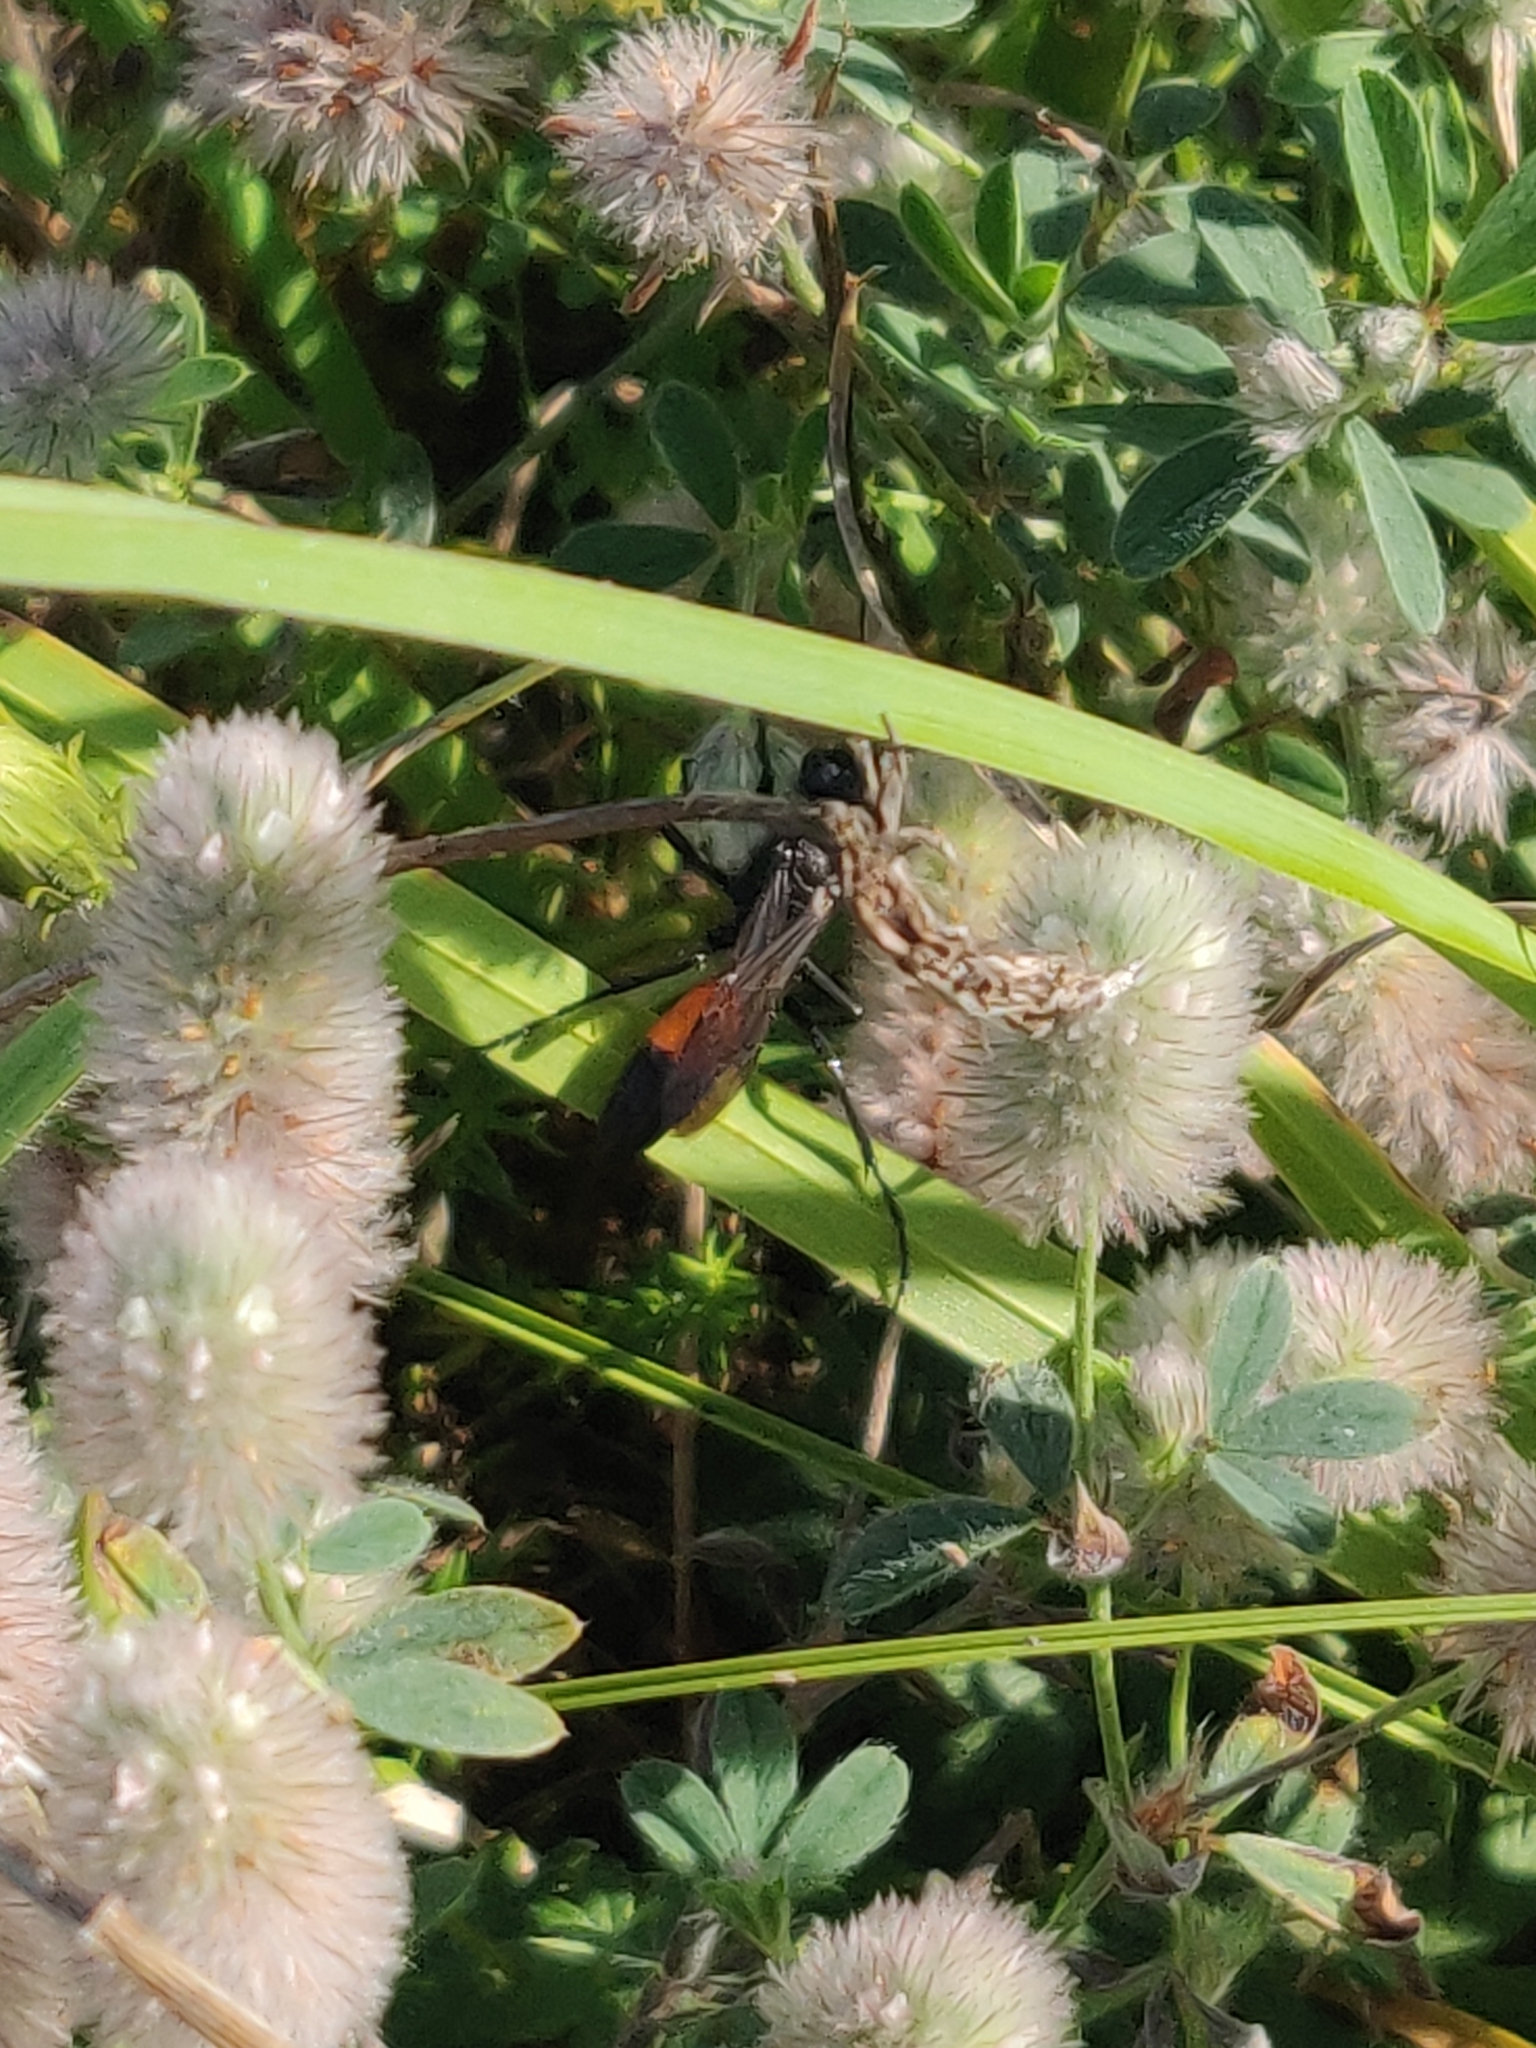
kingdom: Plantae
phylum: Tracheophyta
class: Magnoliopsida
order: Fabales
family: Fabaceae
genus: Trifolium
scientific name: Trifolium arvense
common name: Hare's-foot clover
